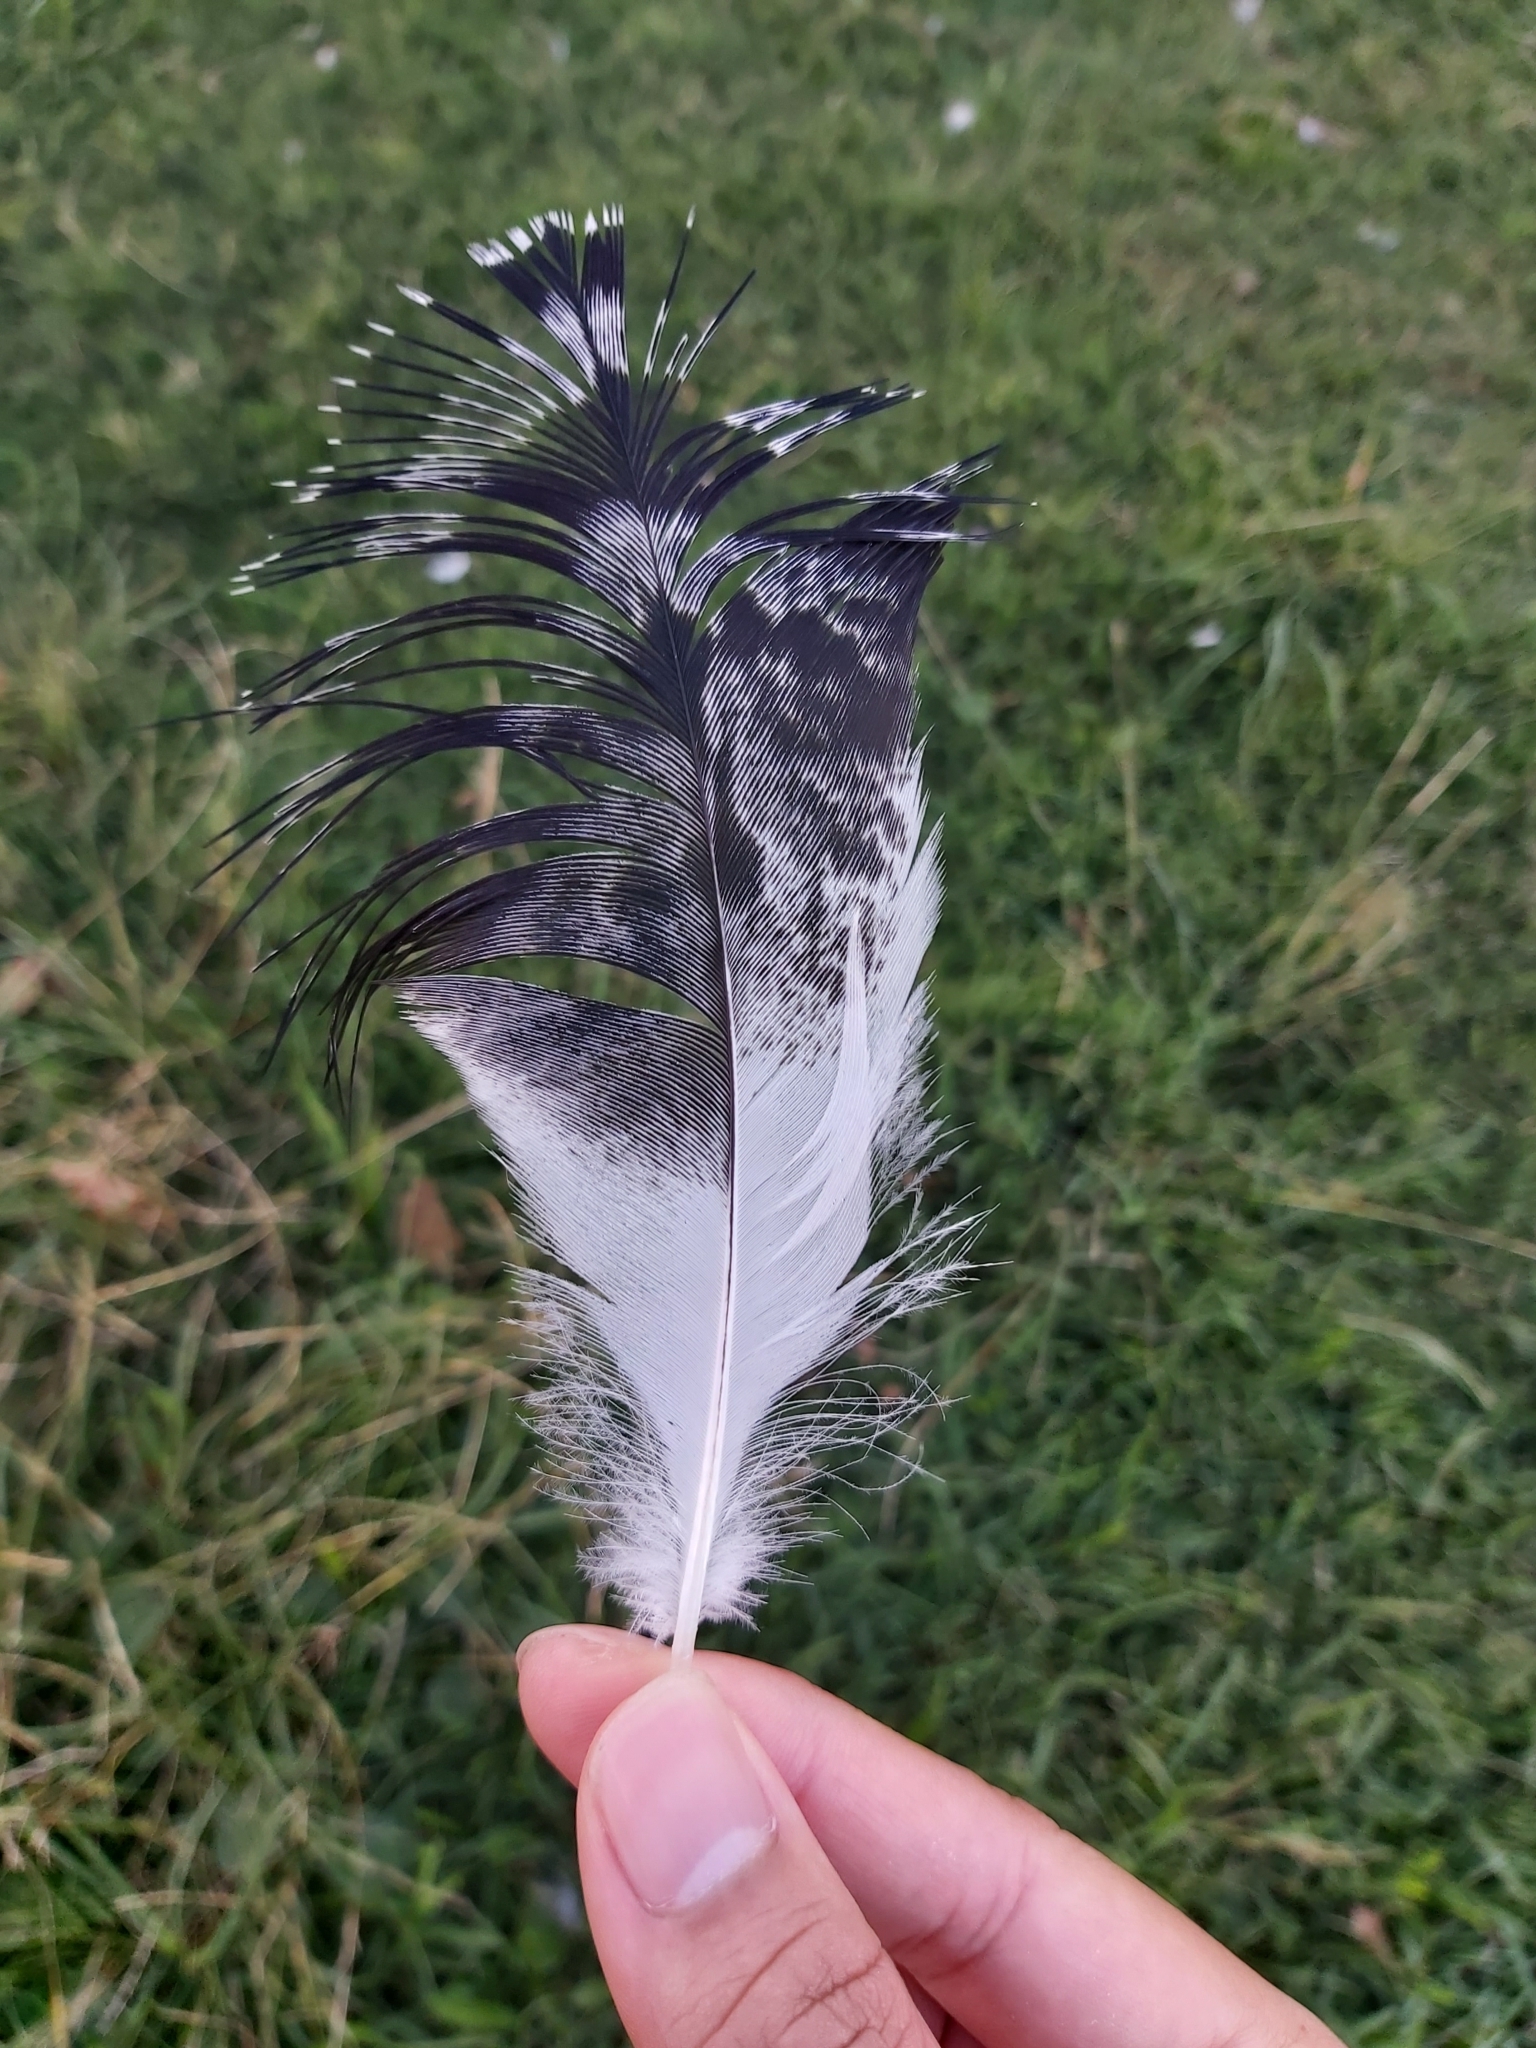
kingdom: Animalia
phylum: Chordata
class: Aves
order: Pelecaniformes
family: Threskiornithidae
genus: Threskiornis
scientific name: Threskiornis molucca
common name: Australian white ibis
